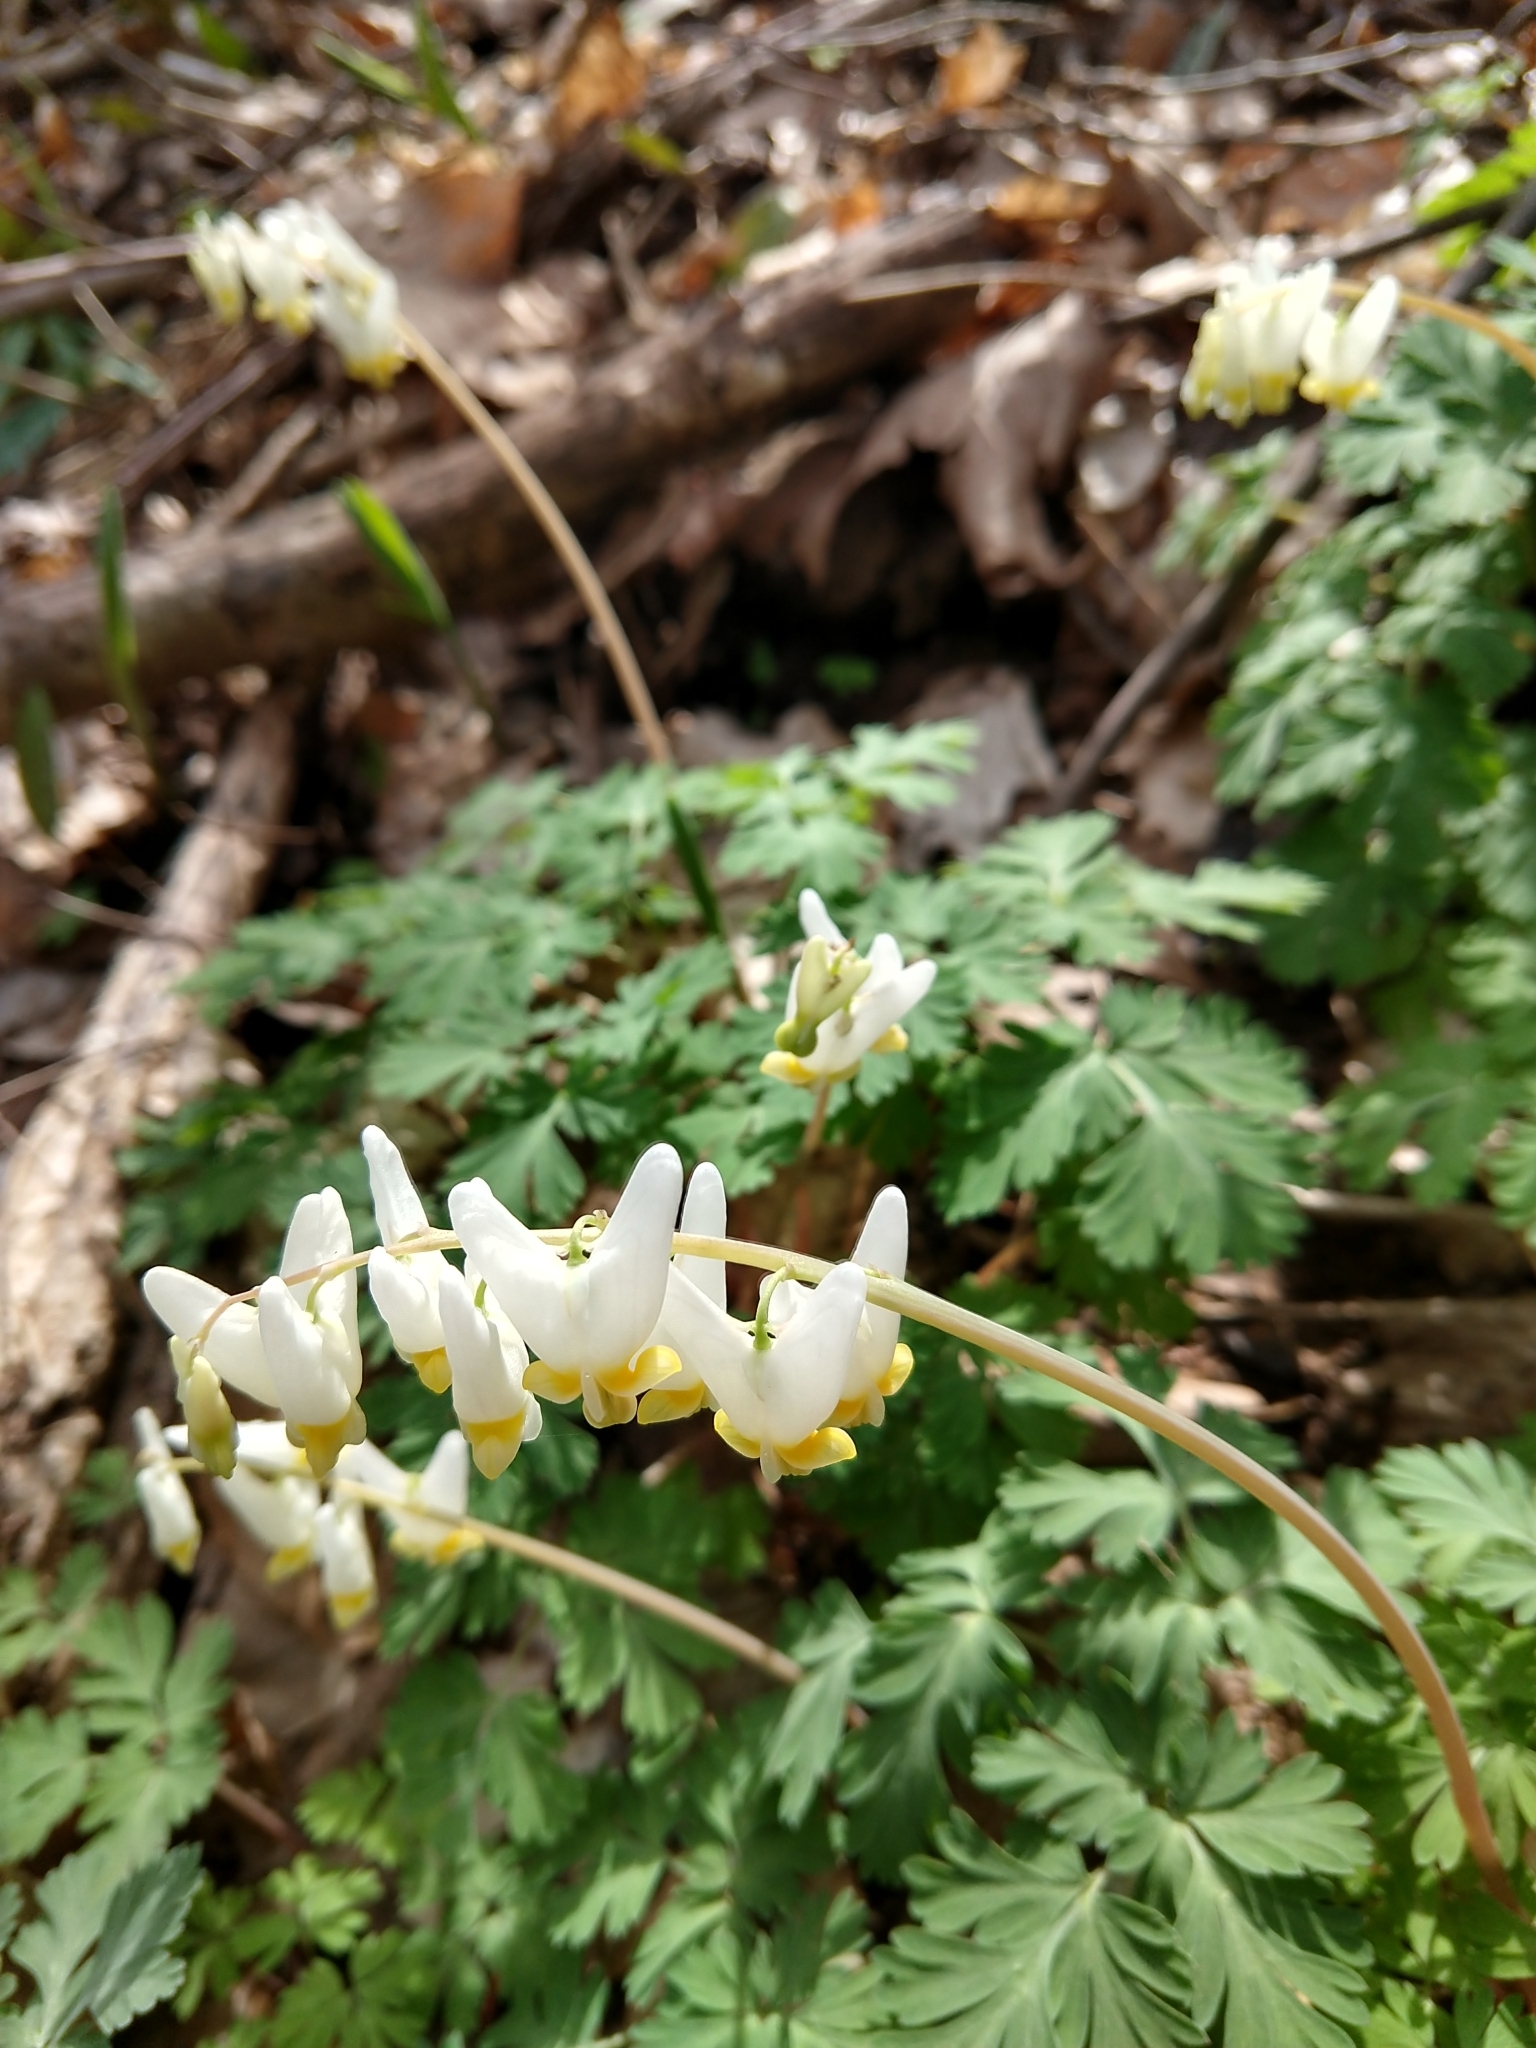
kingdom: Plantae
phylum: Tracheophyta
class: Magnoliopsida
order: Ranunculales
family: Papaveraceae
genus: Dicentra
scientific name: Dicentra cucullaria
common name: Dutchman's breeches
